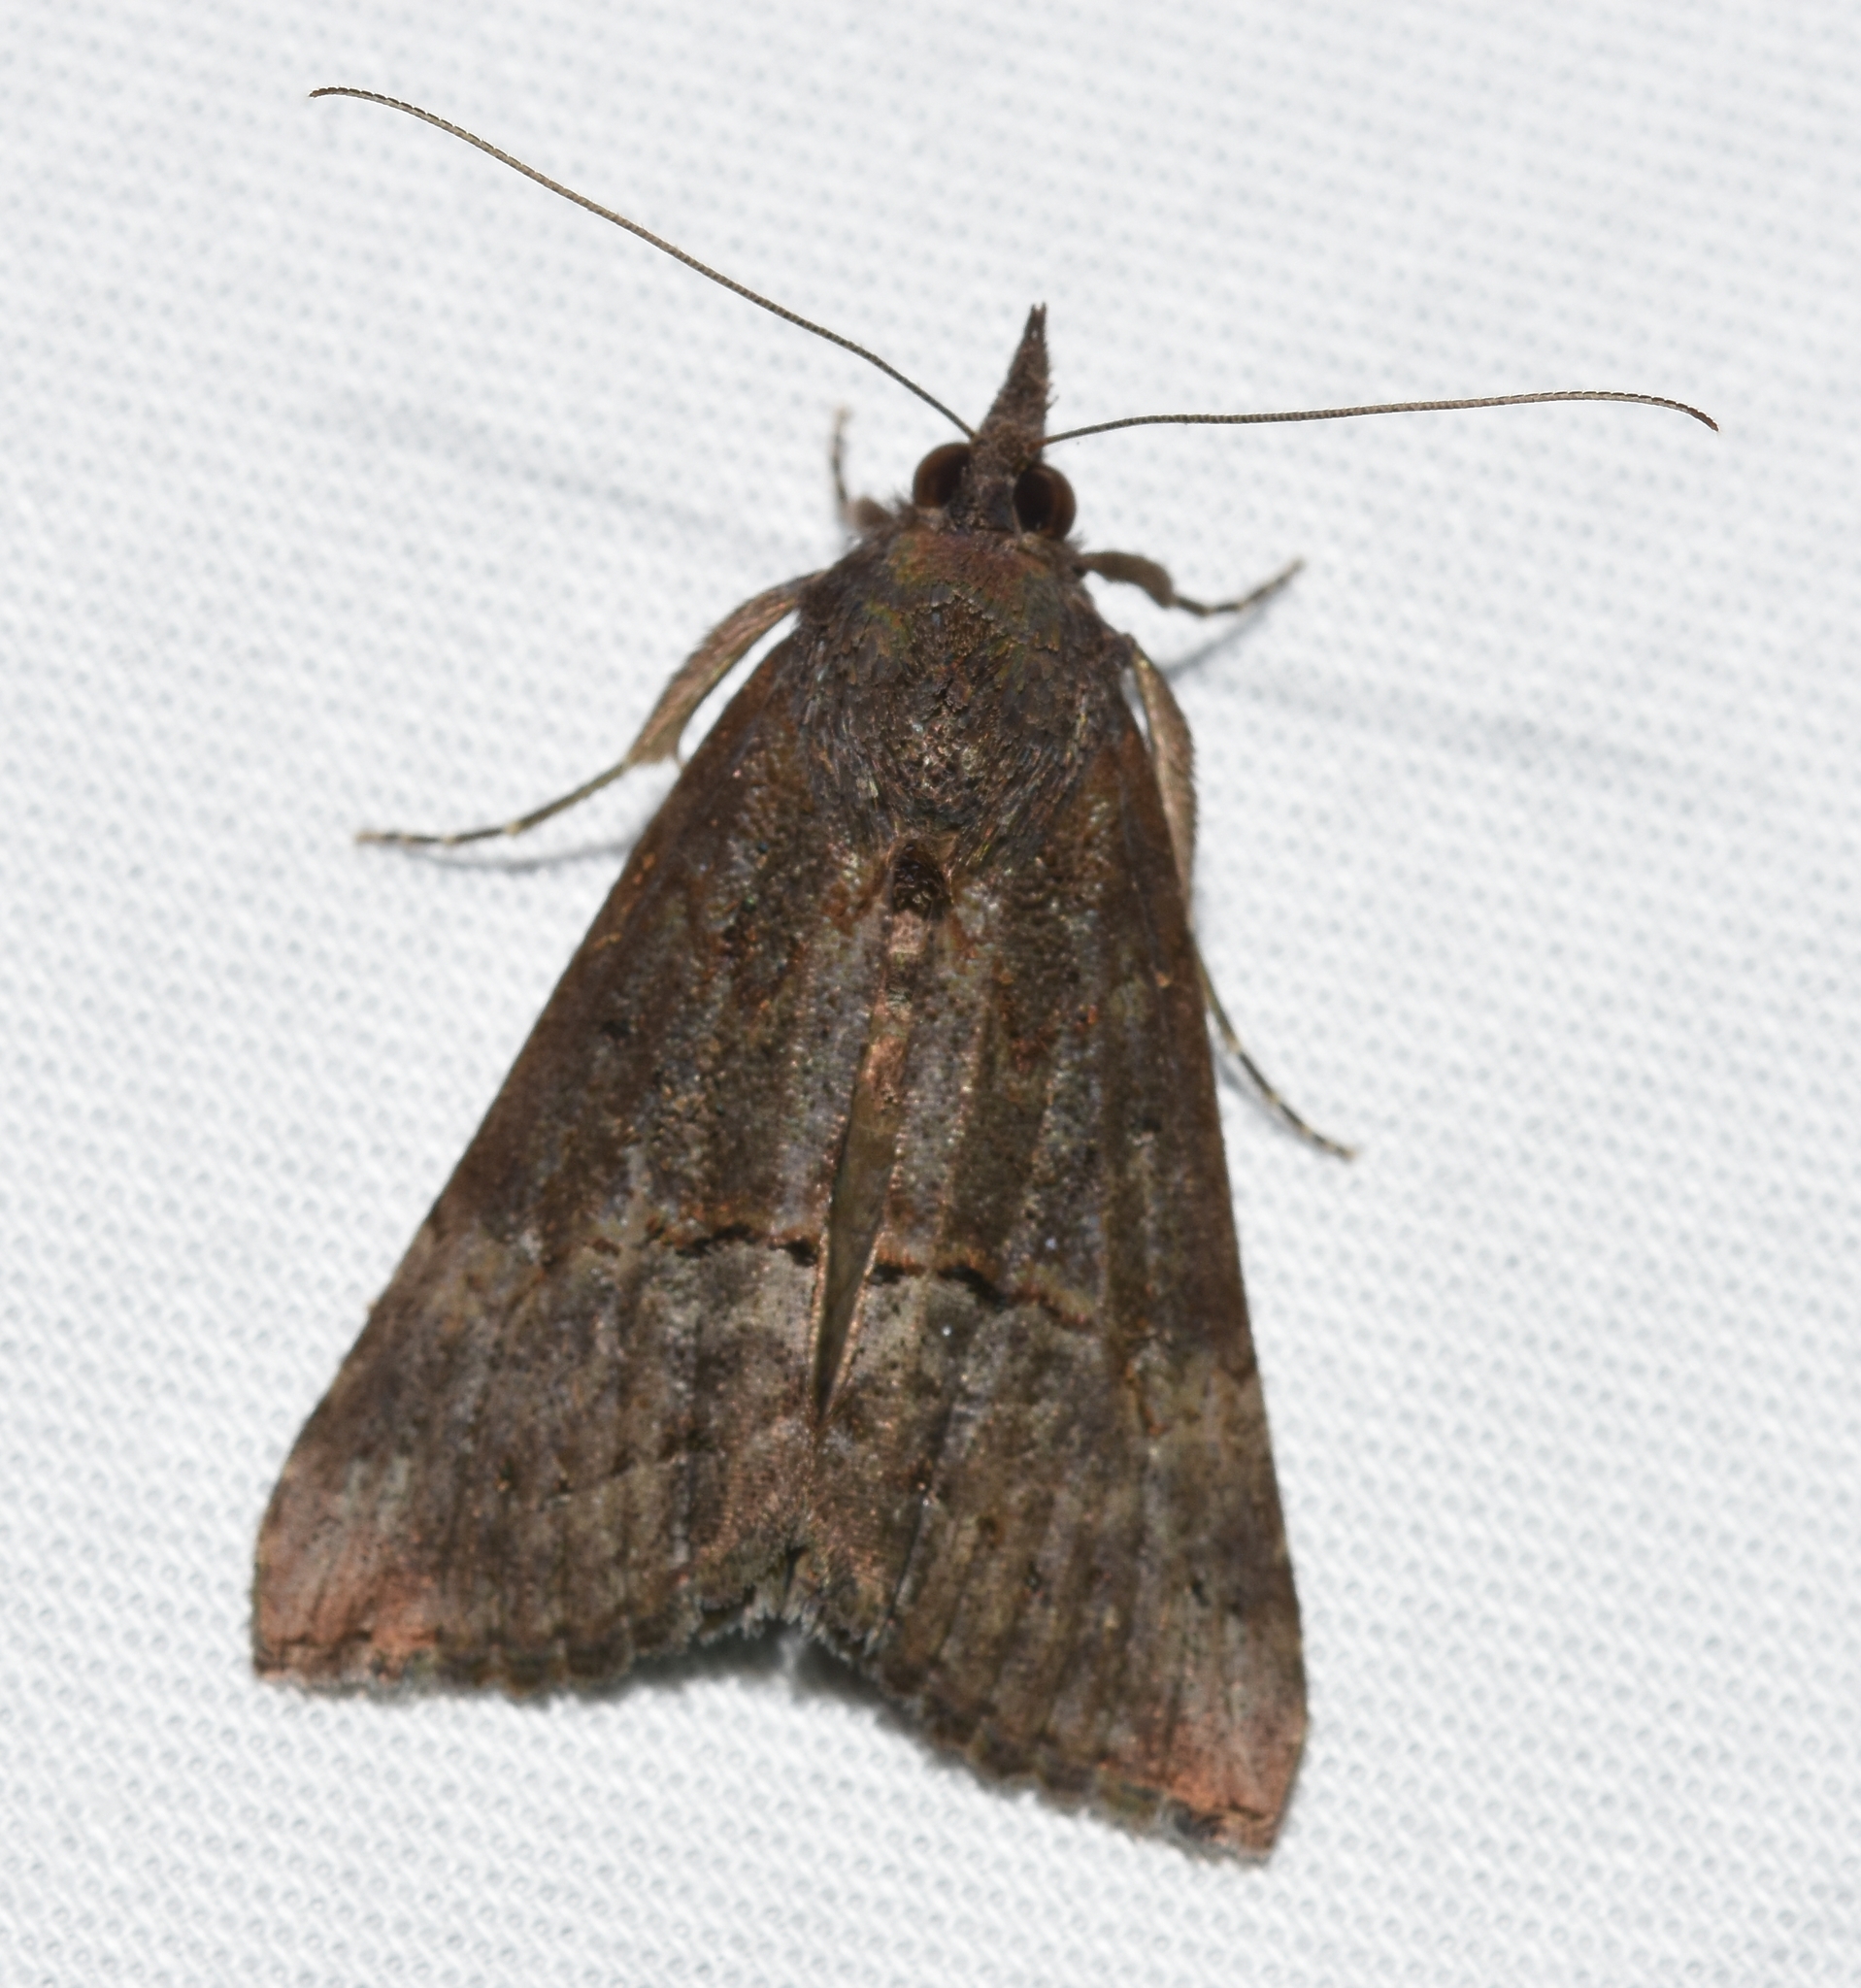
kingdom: Animalia
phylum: Arthropoda
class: Insecta
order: Lepidoptera
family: Erebidae
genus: Hypena
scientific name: Hypena scabra
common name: Green cloverworm
